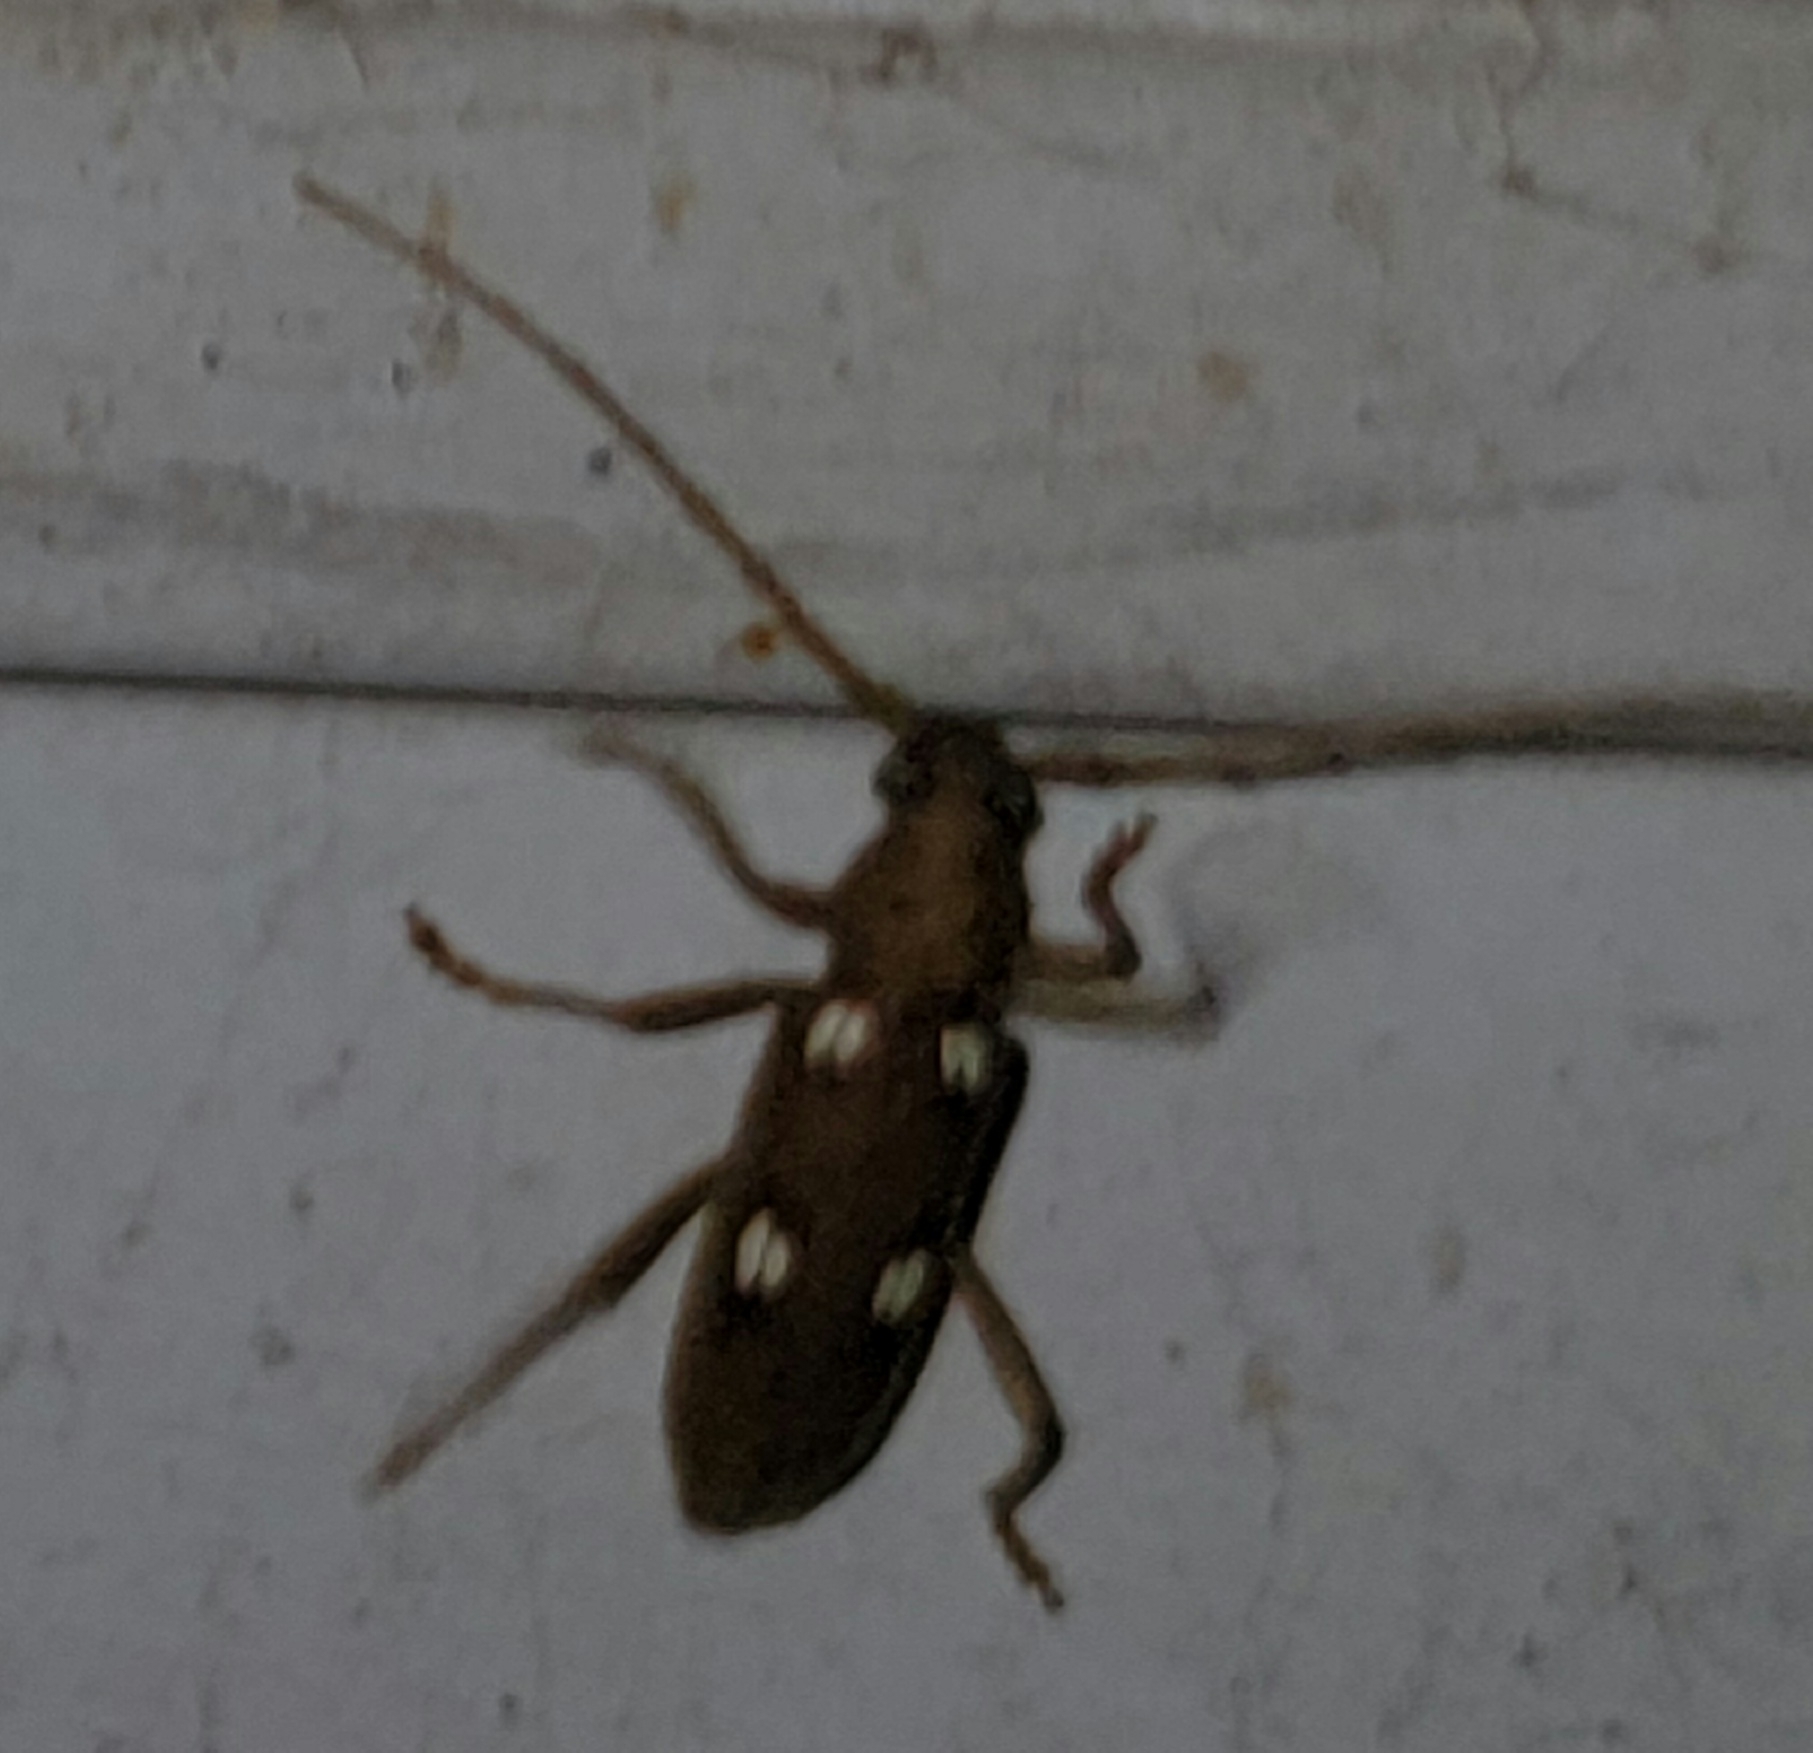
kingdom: Animalia
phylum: Arthropoda
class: Insecta
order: Coleoptera
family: Cerambycidae
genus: Eburia
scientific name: Eburia quadrigeminata
